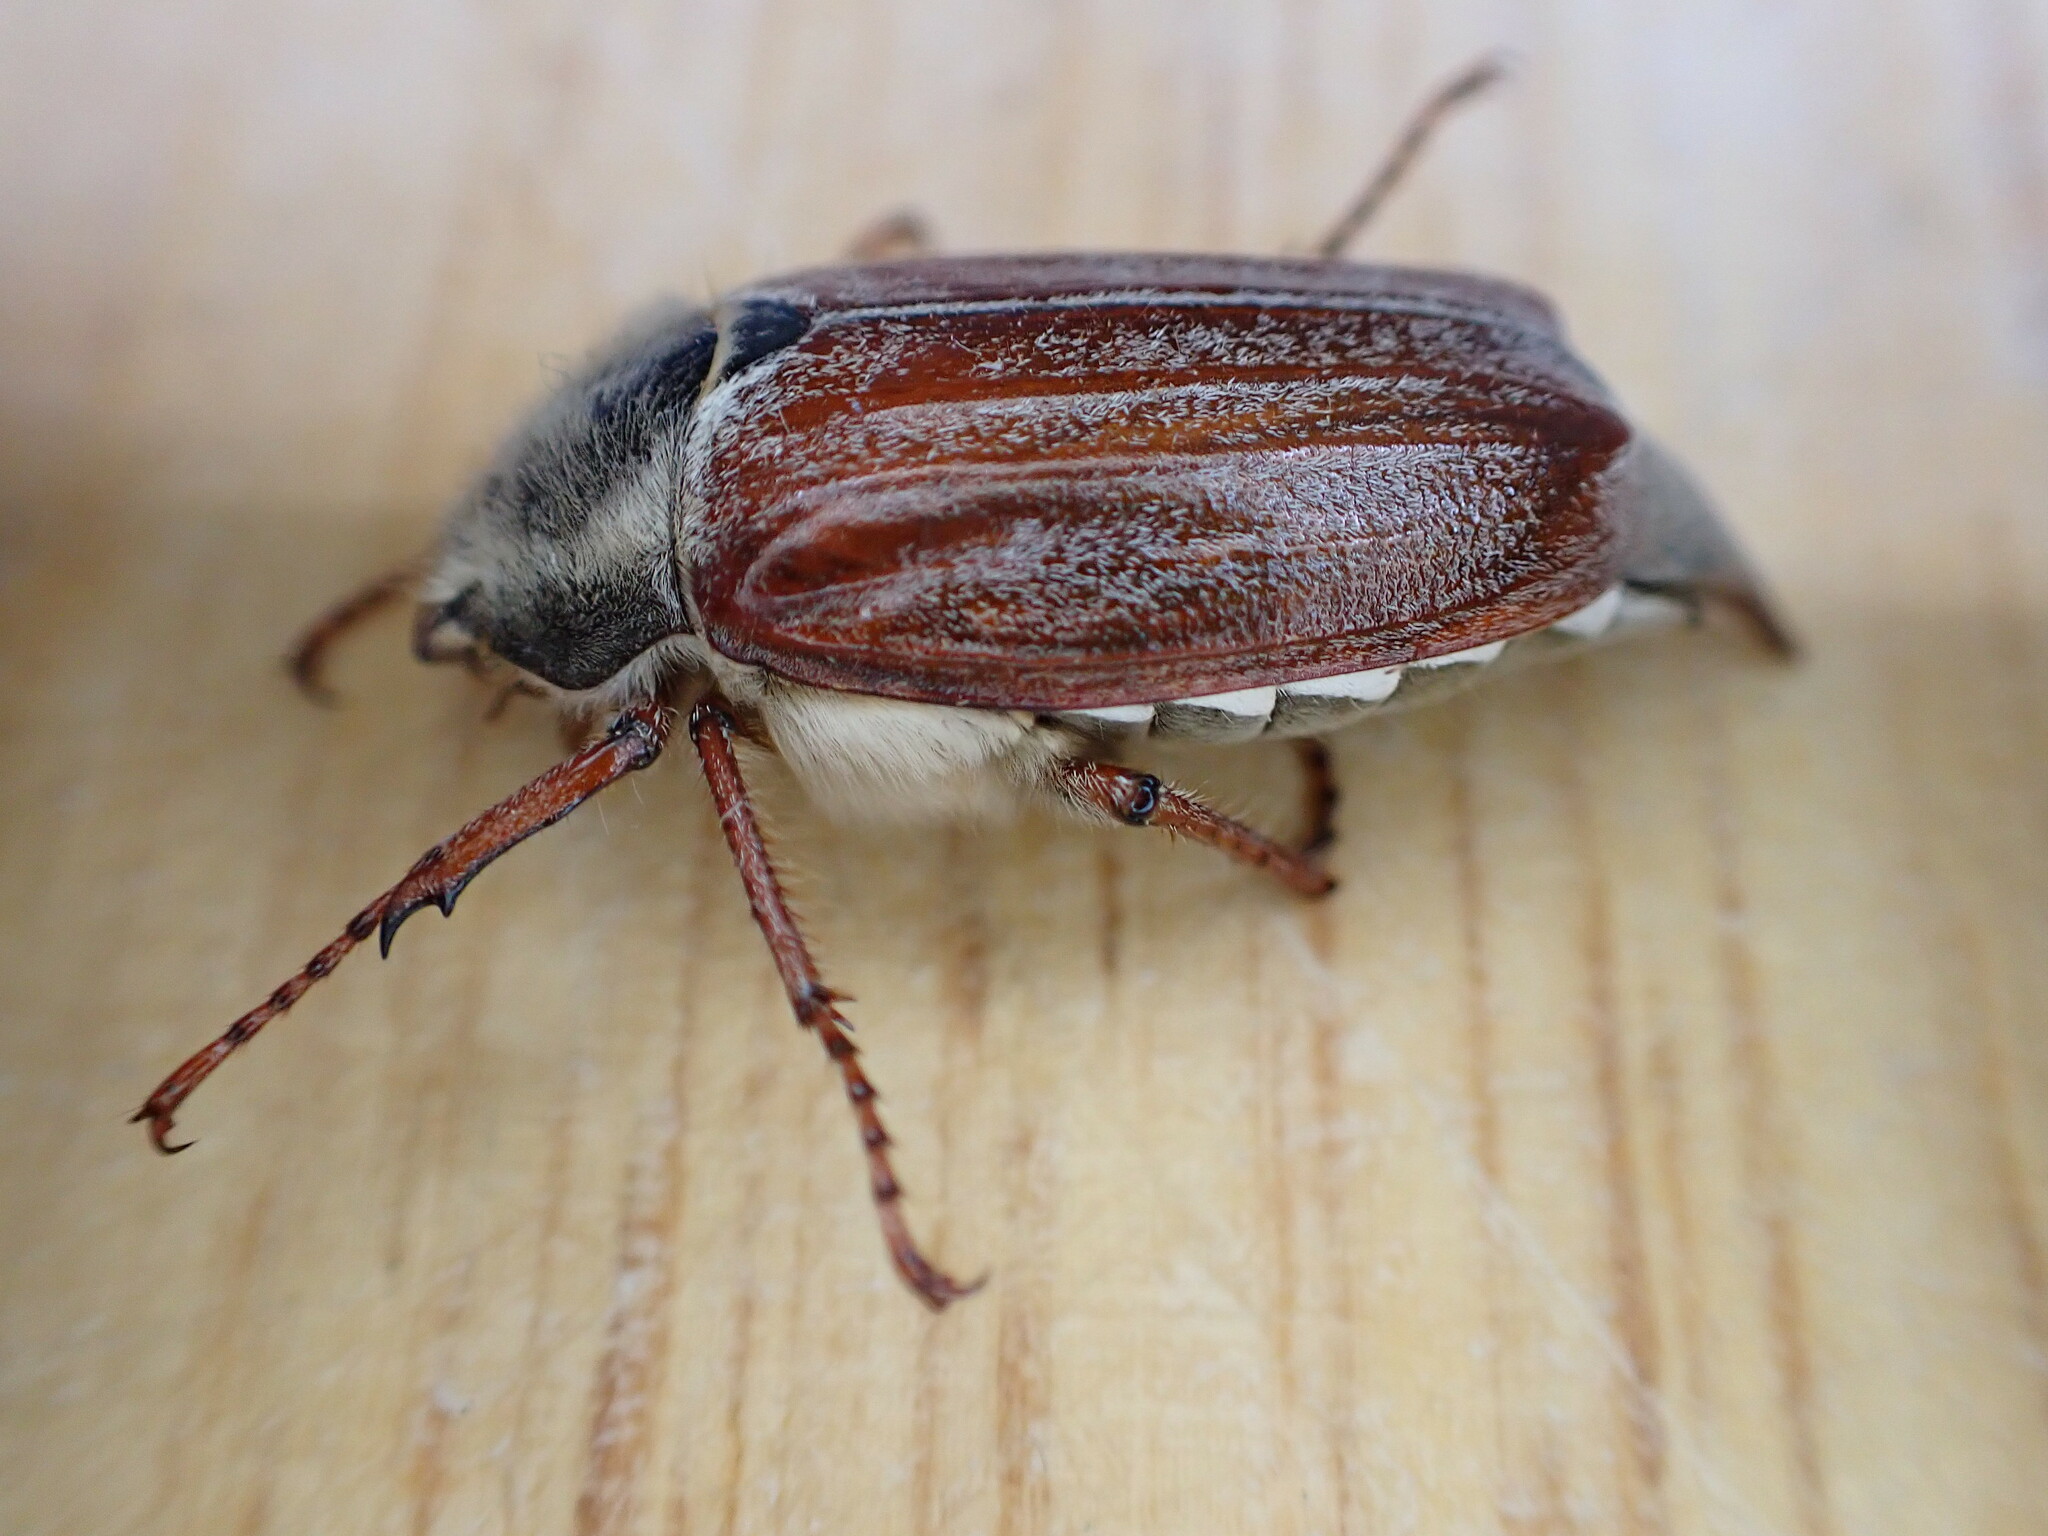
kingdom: Animalia
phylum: Arthropoda
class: Insecta
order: Coleoptera
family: Scarabaeidae
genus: Melolontha
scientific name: Melolontha melolontha
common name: Cockchafer maybeetle
